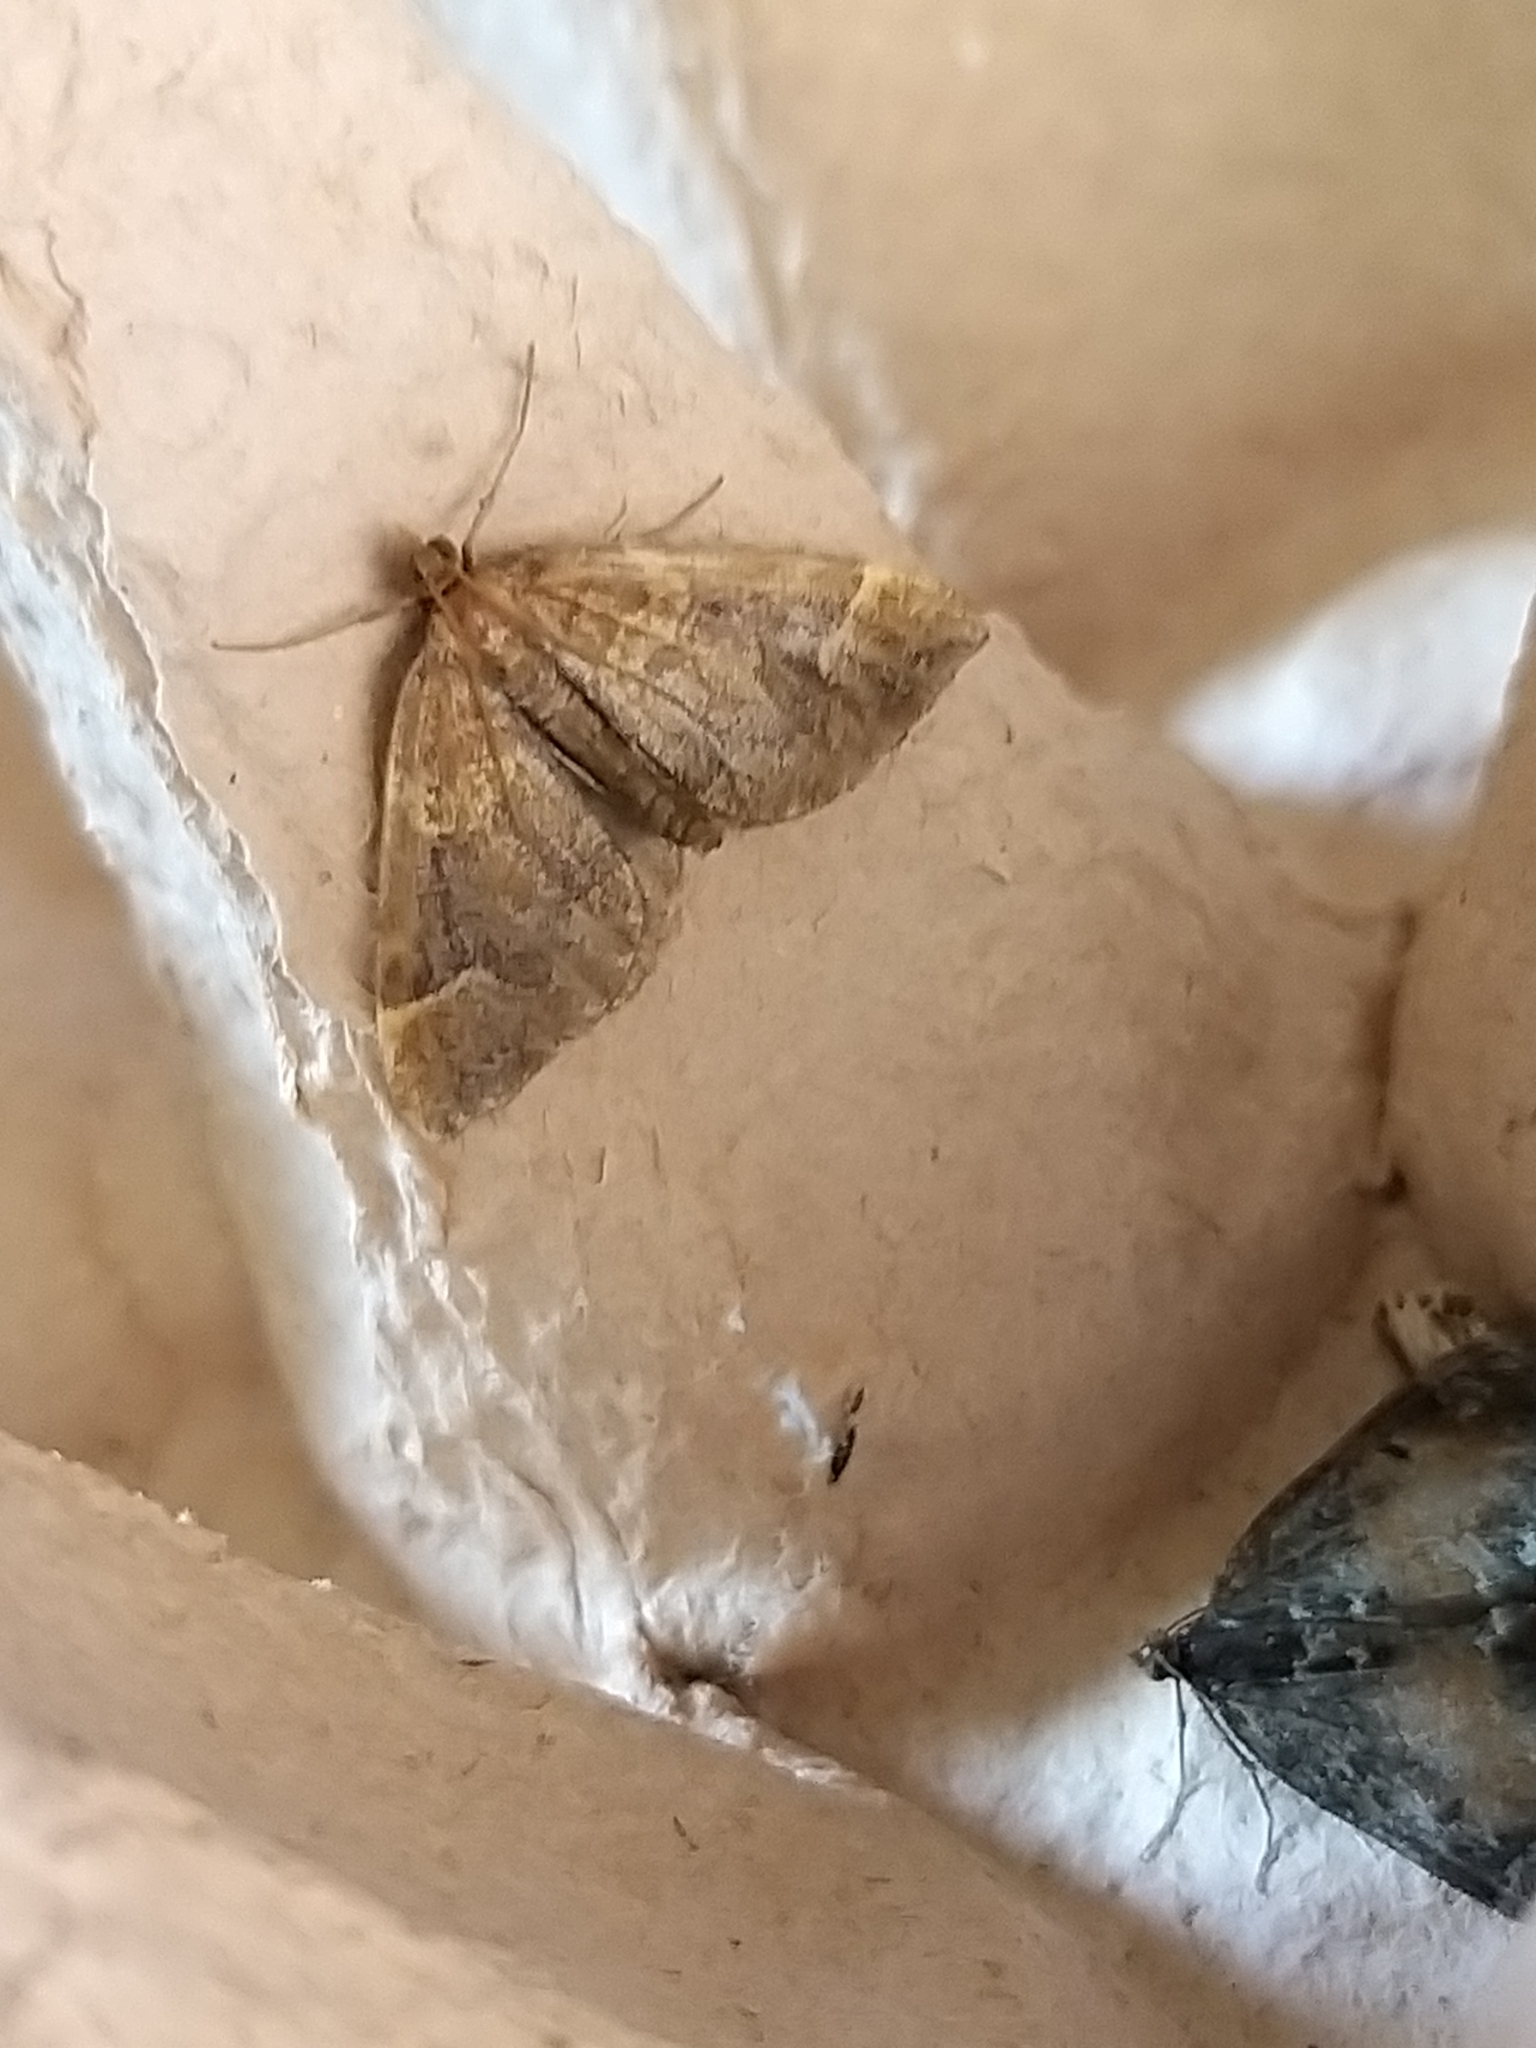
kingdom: Animalia
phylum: Arthropoda
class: Insecta
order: Lepidoptera
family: Geometridae
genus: Eulithis
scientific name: Eulithis populata
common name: Northern spinach
